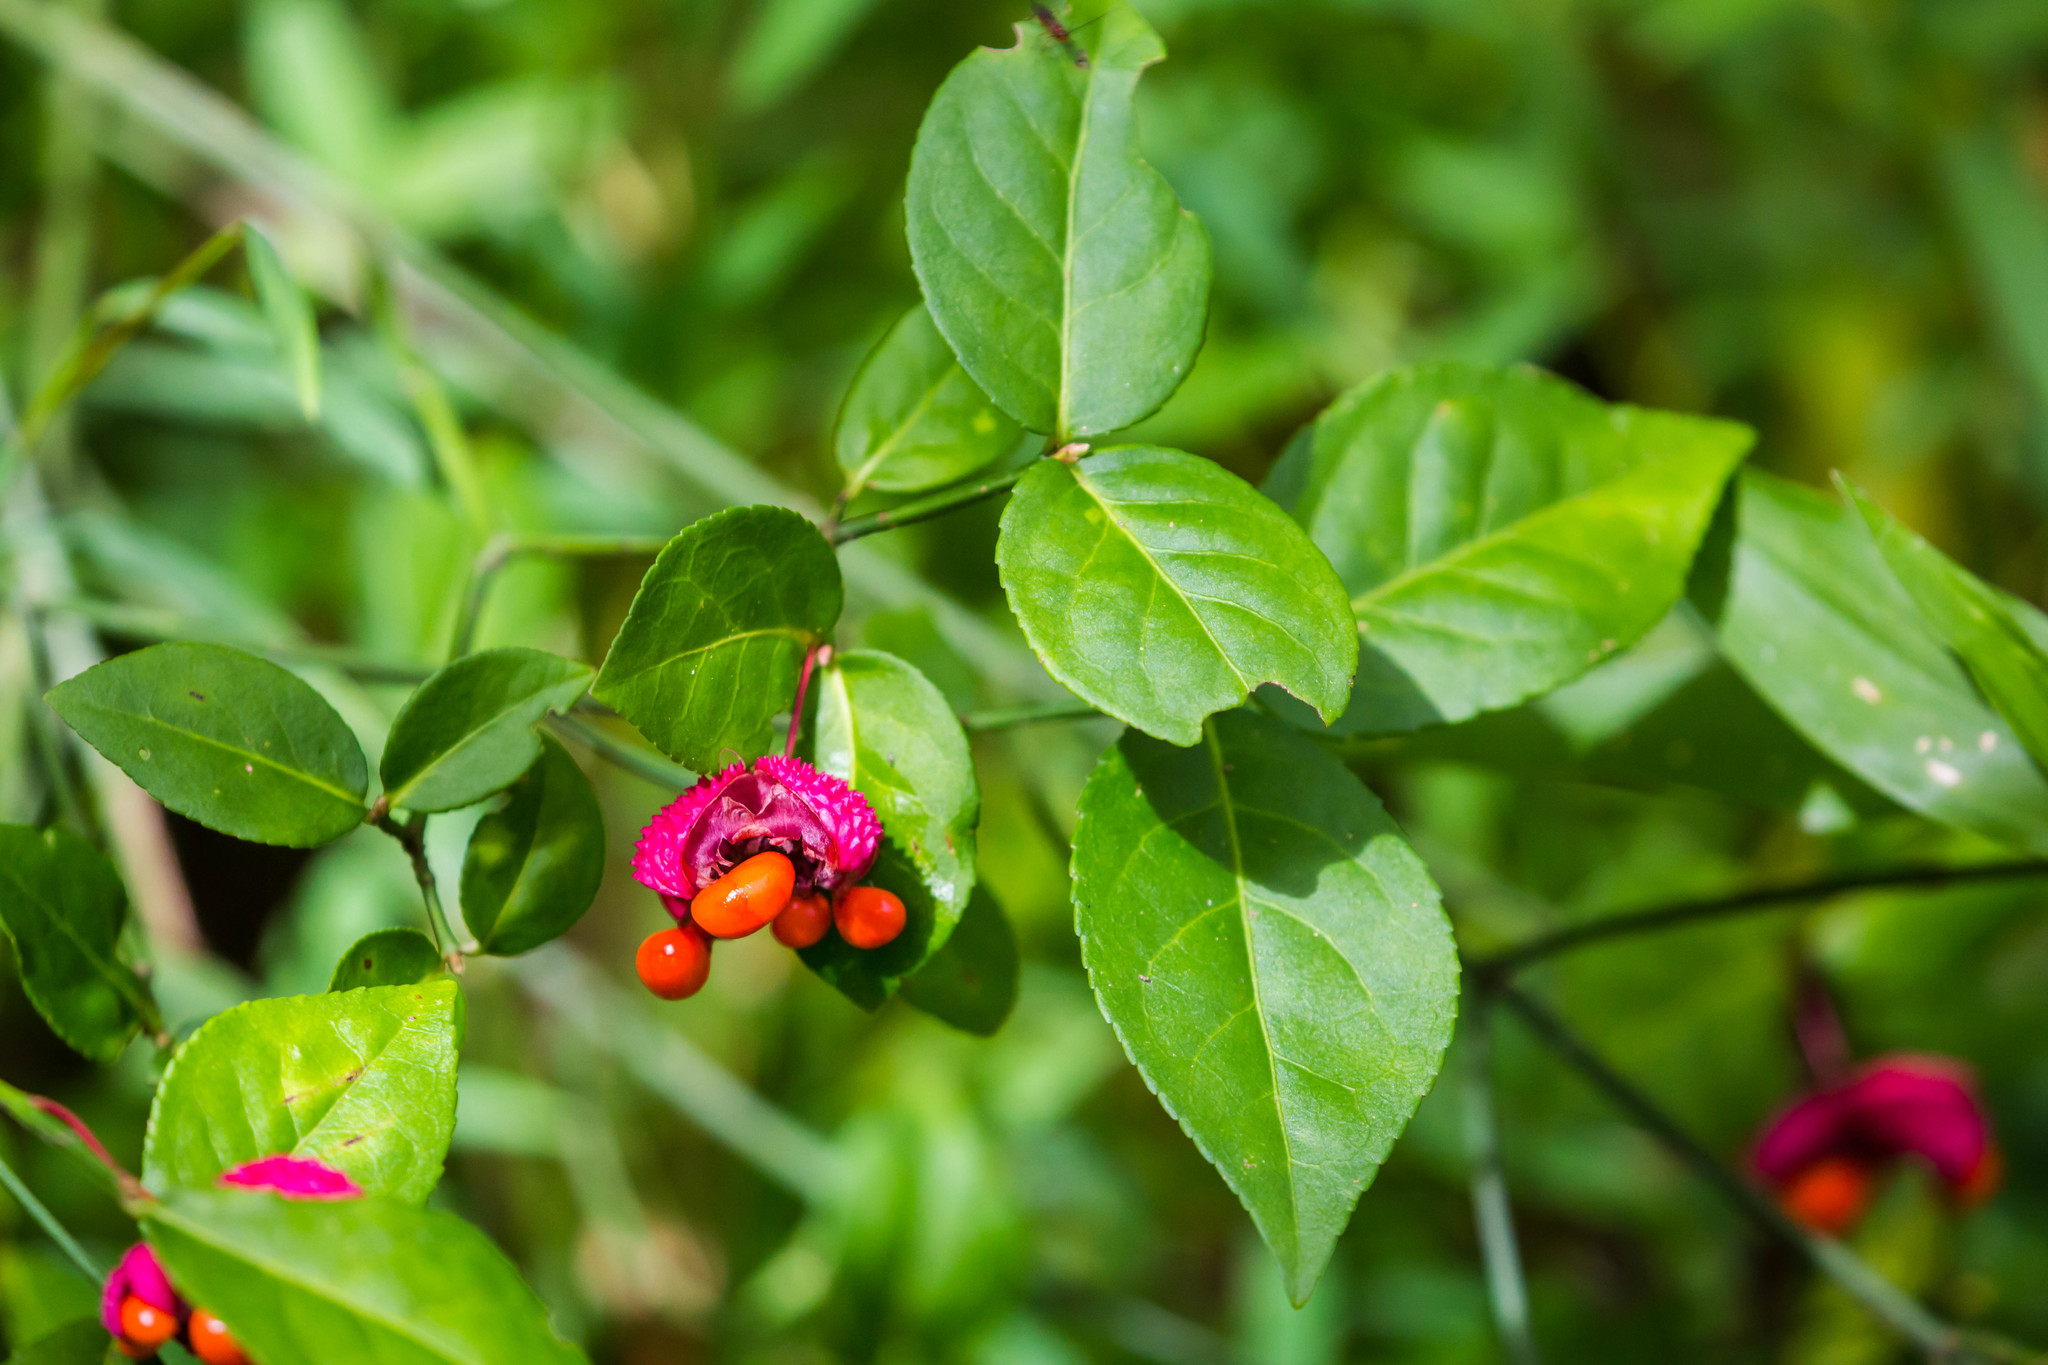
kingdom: Plantae
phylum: Tracheophyta
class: Magnoliopsida
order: Celastrales
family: Celastraceae
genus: Euonymus
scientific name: Euonymus americanus
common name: Bursting-heart
